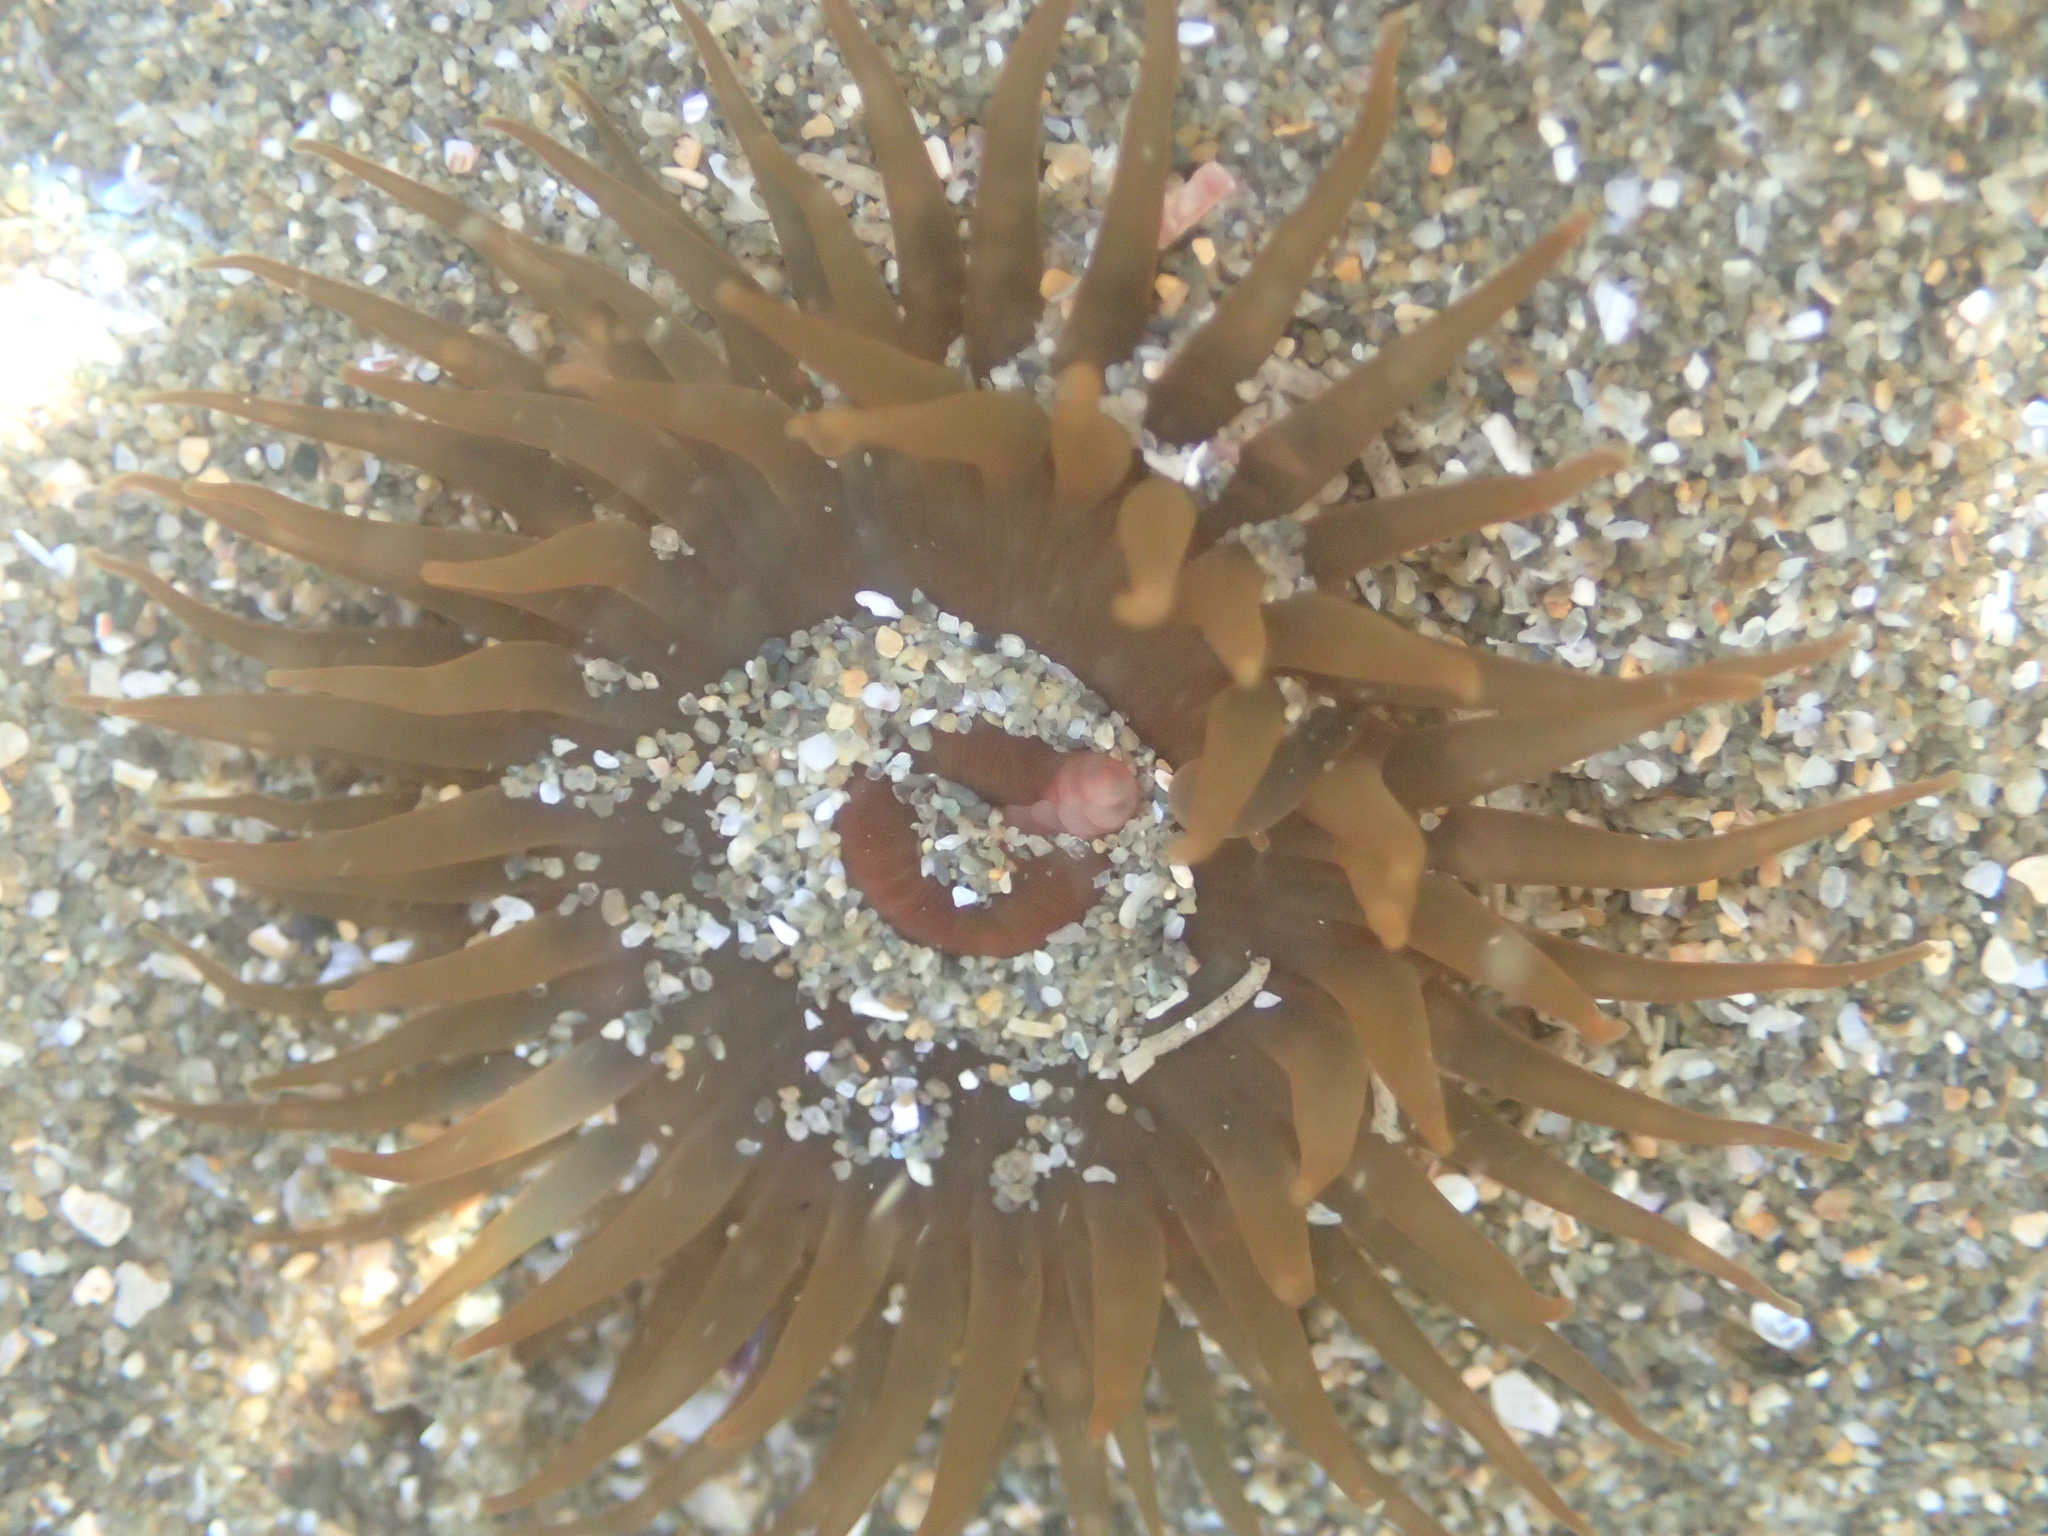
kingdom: Animalia
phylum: Cnidaria
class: Anthozoa
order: Actiniaria
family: Actiniidae
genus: Isactinia
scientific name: Isactinia olivacea
